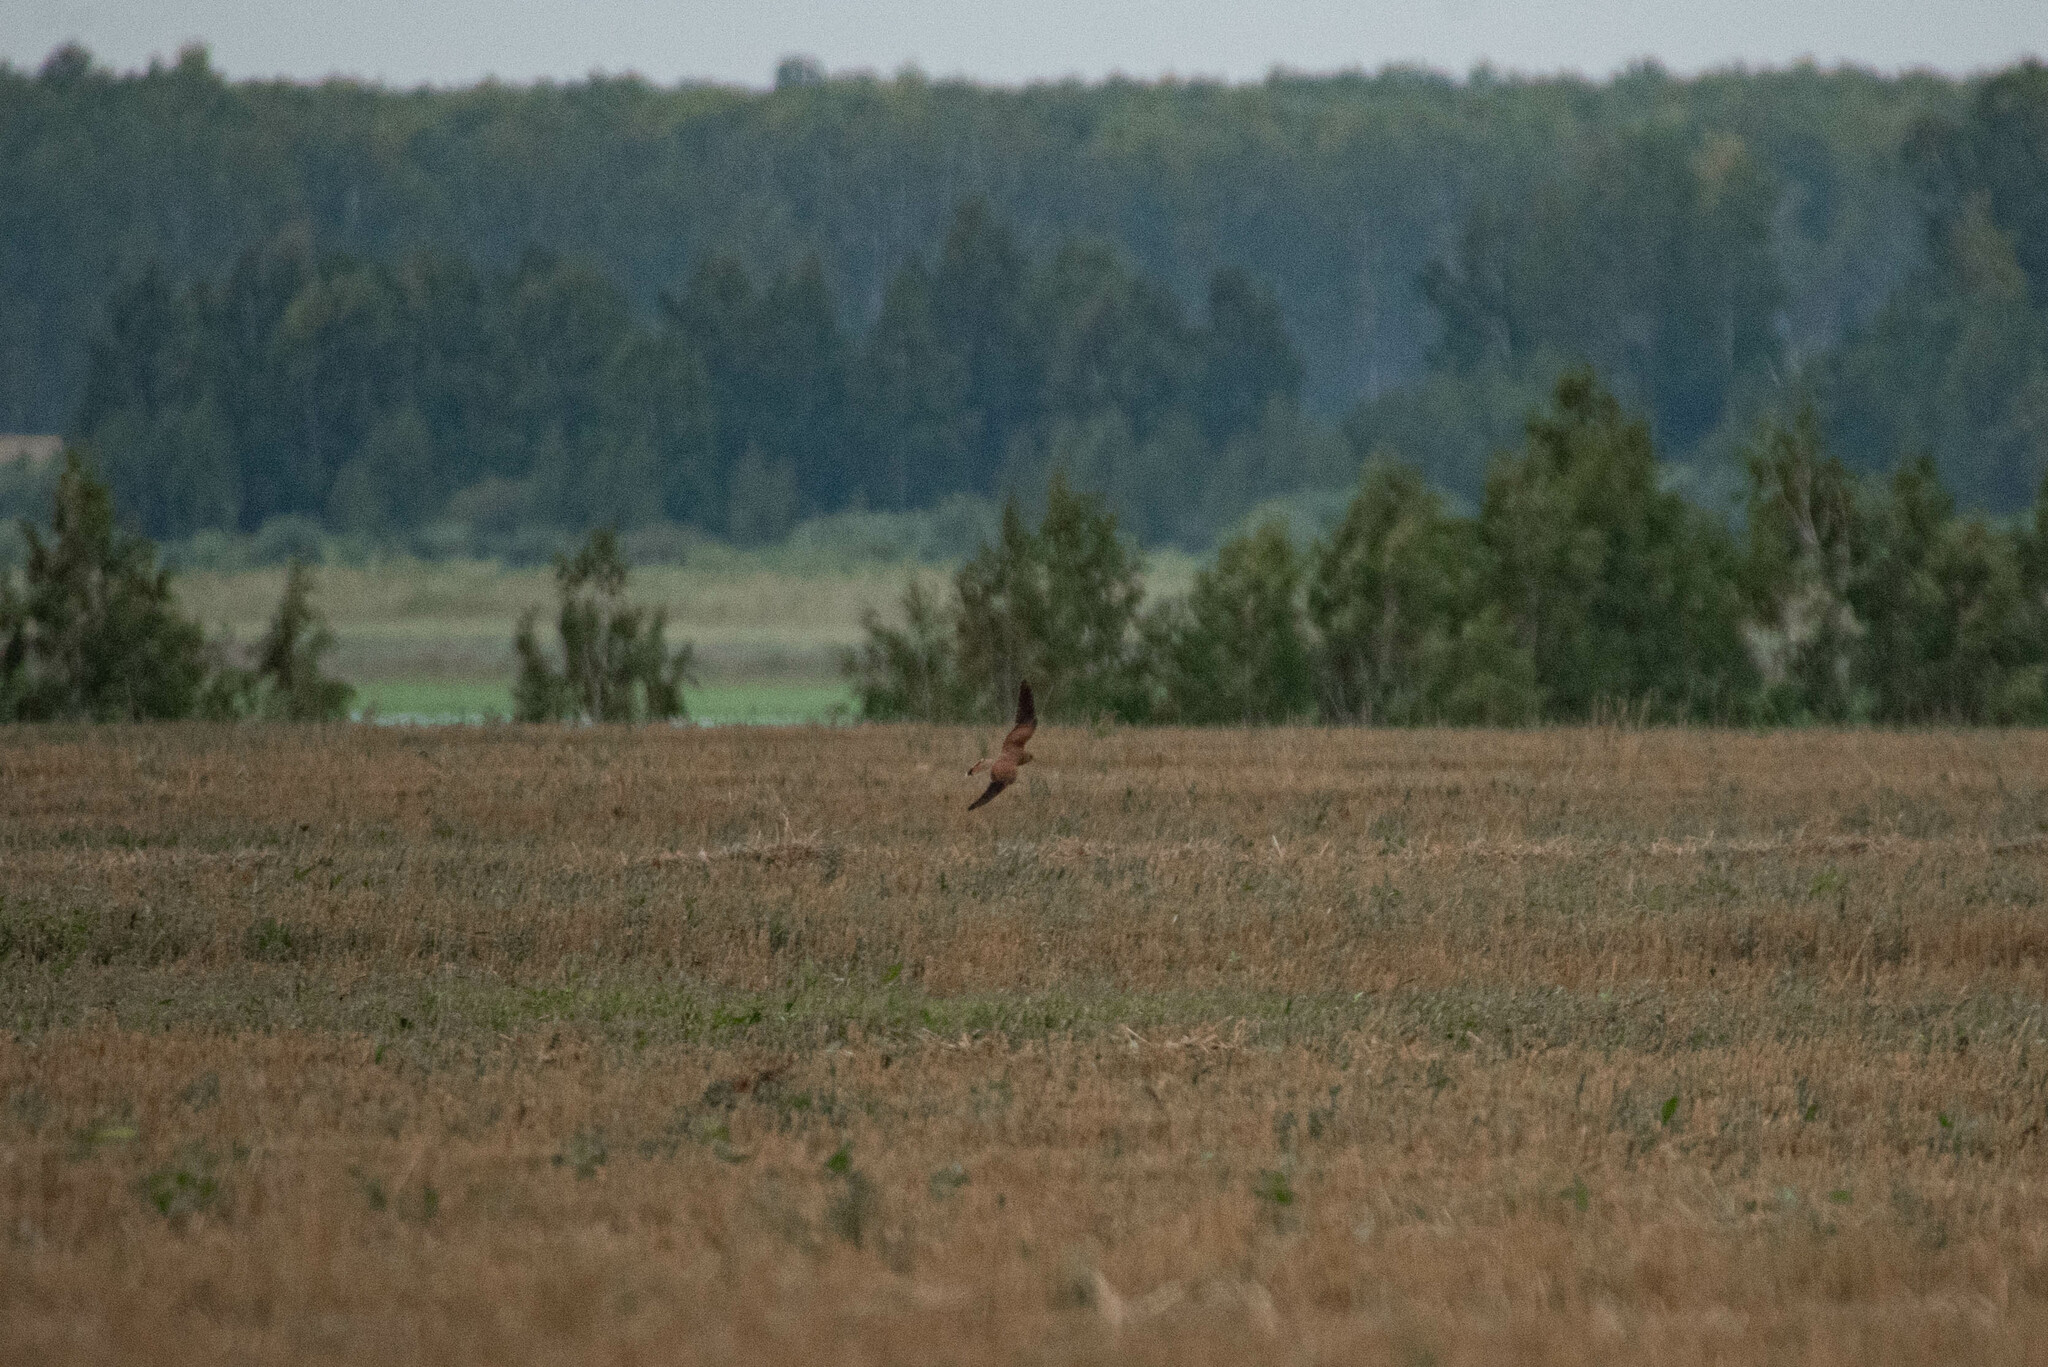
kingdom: Animalia
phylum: Chordata
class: Aves
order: Falconiformes
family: Falconidae
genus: Falco
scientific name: Falco tinnunculus
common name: Common kestrel
